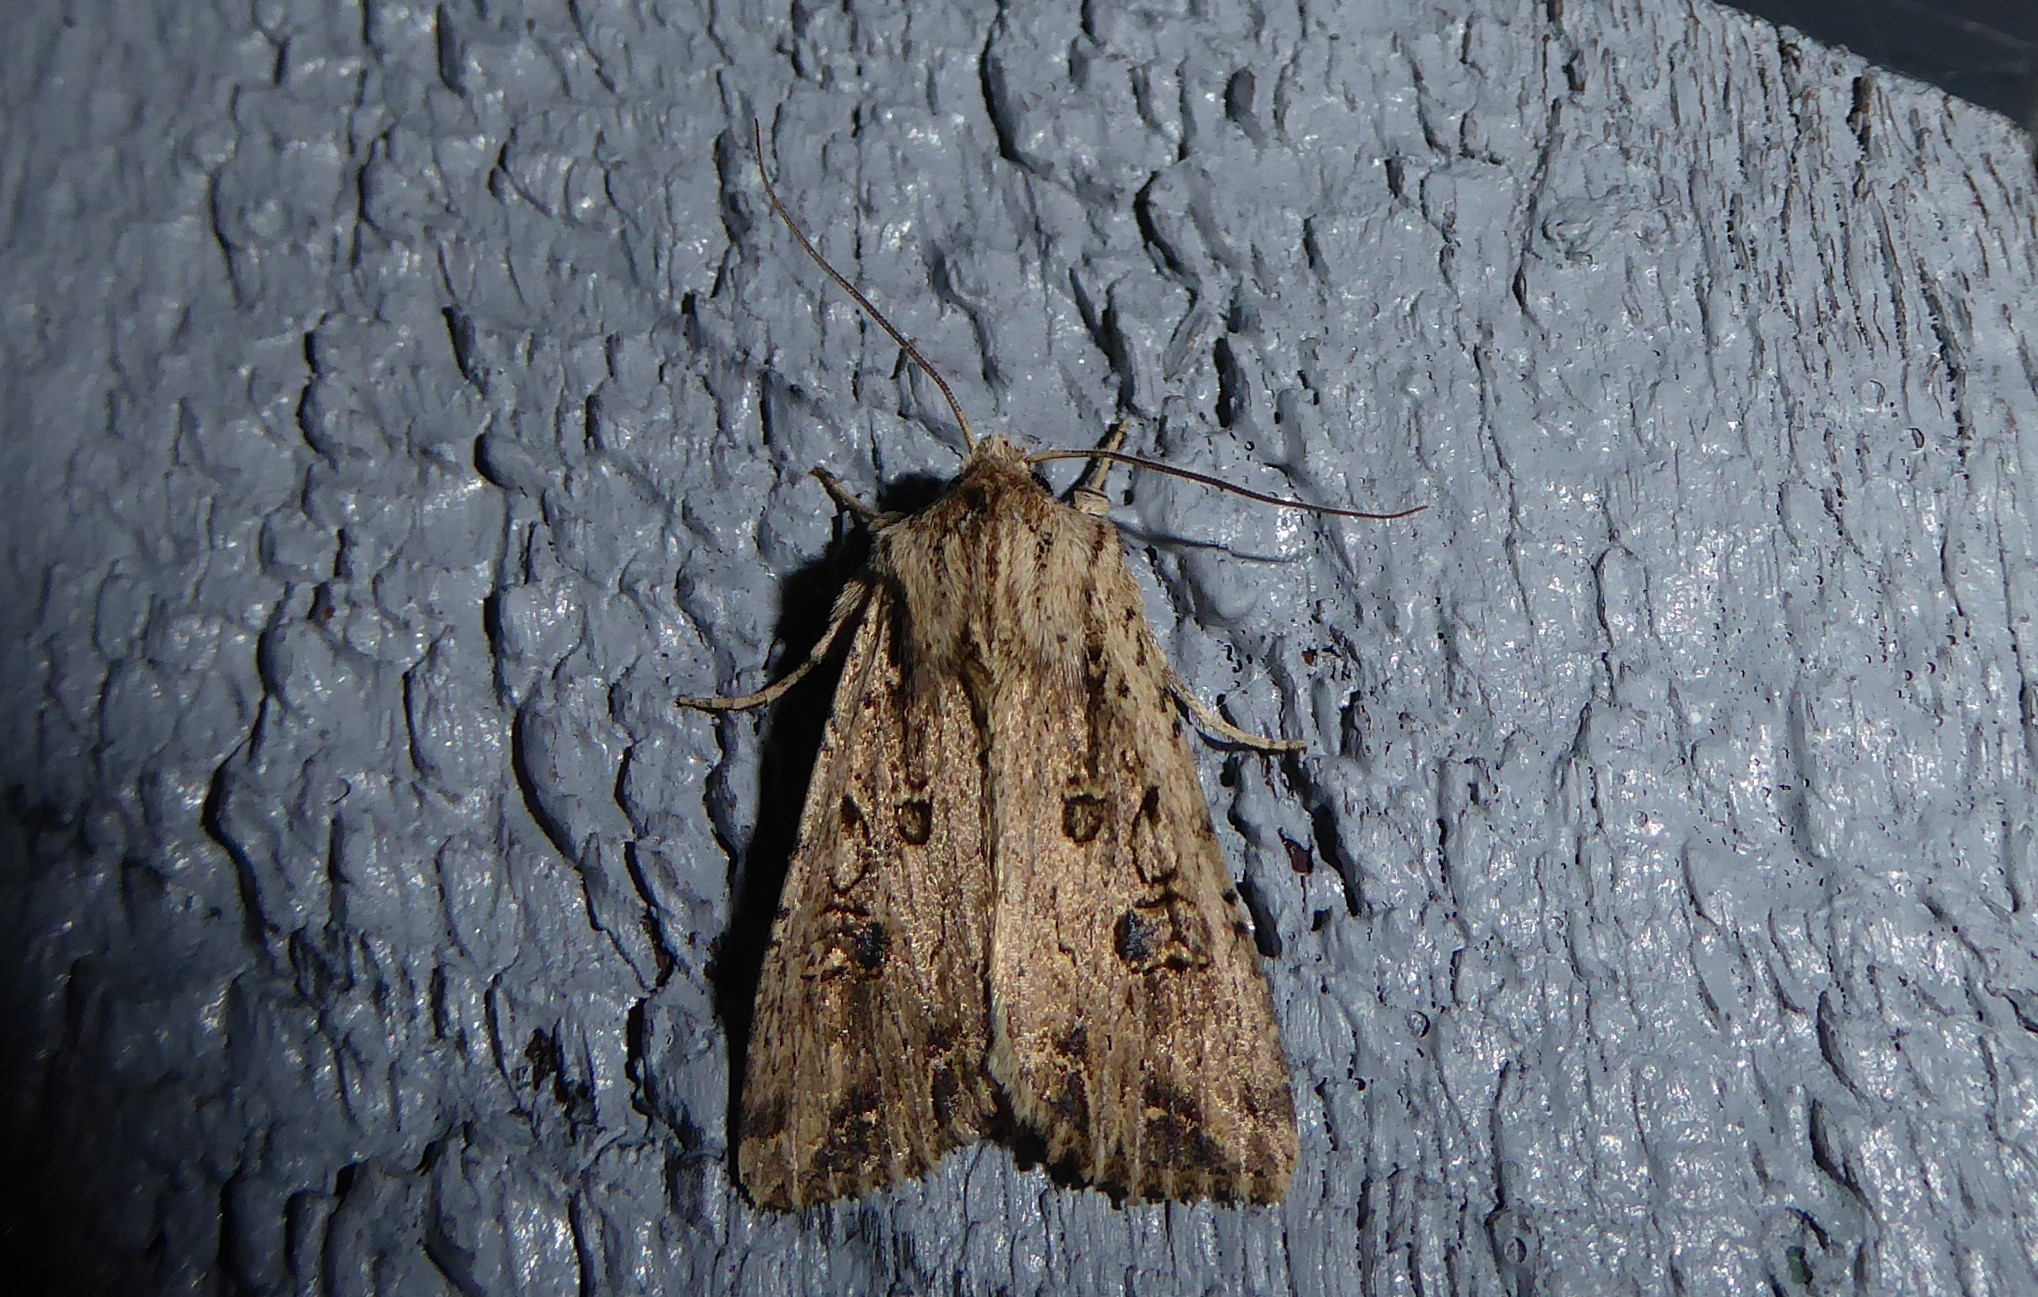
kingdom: Animalia
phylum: Arthropoda
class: Insecta
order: Lepidoptera
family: Noctuidae
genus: Ichneutica
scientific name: Ichneutica lignana
